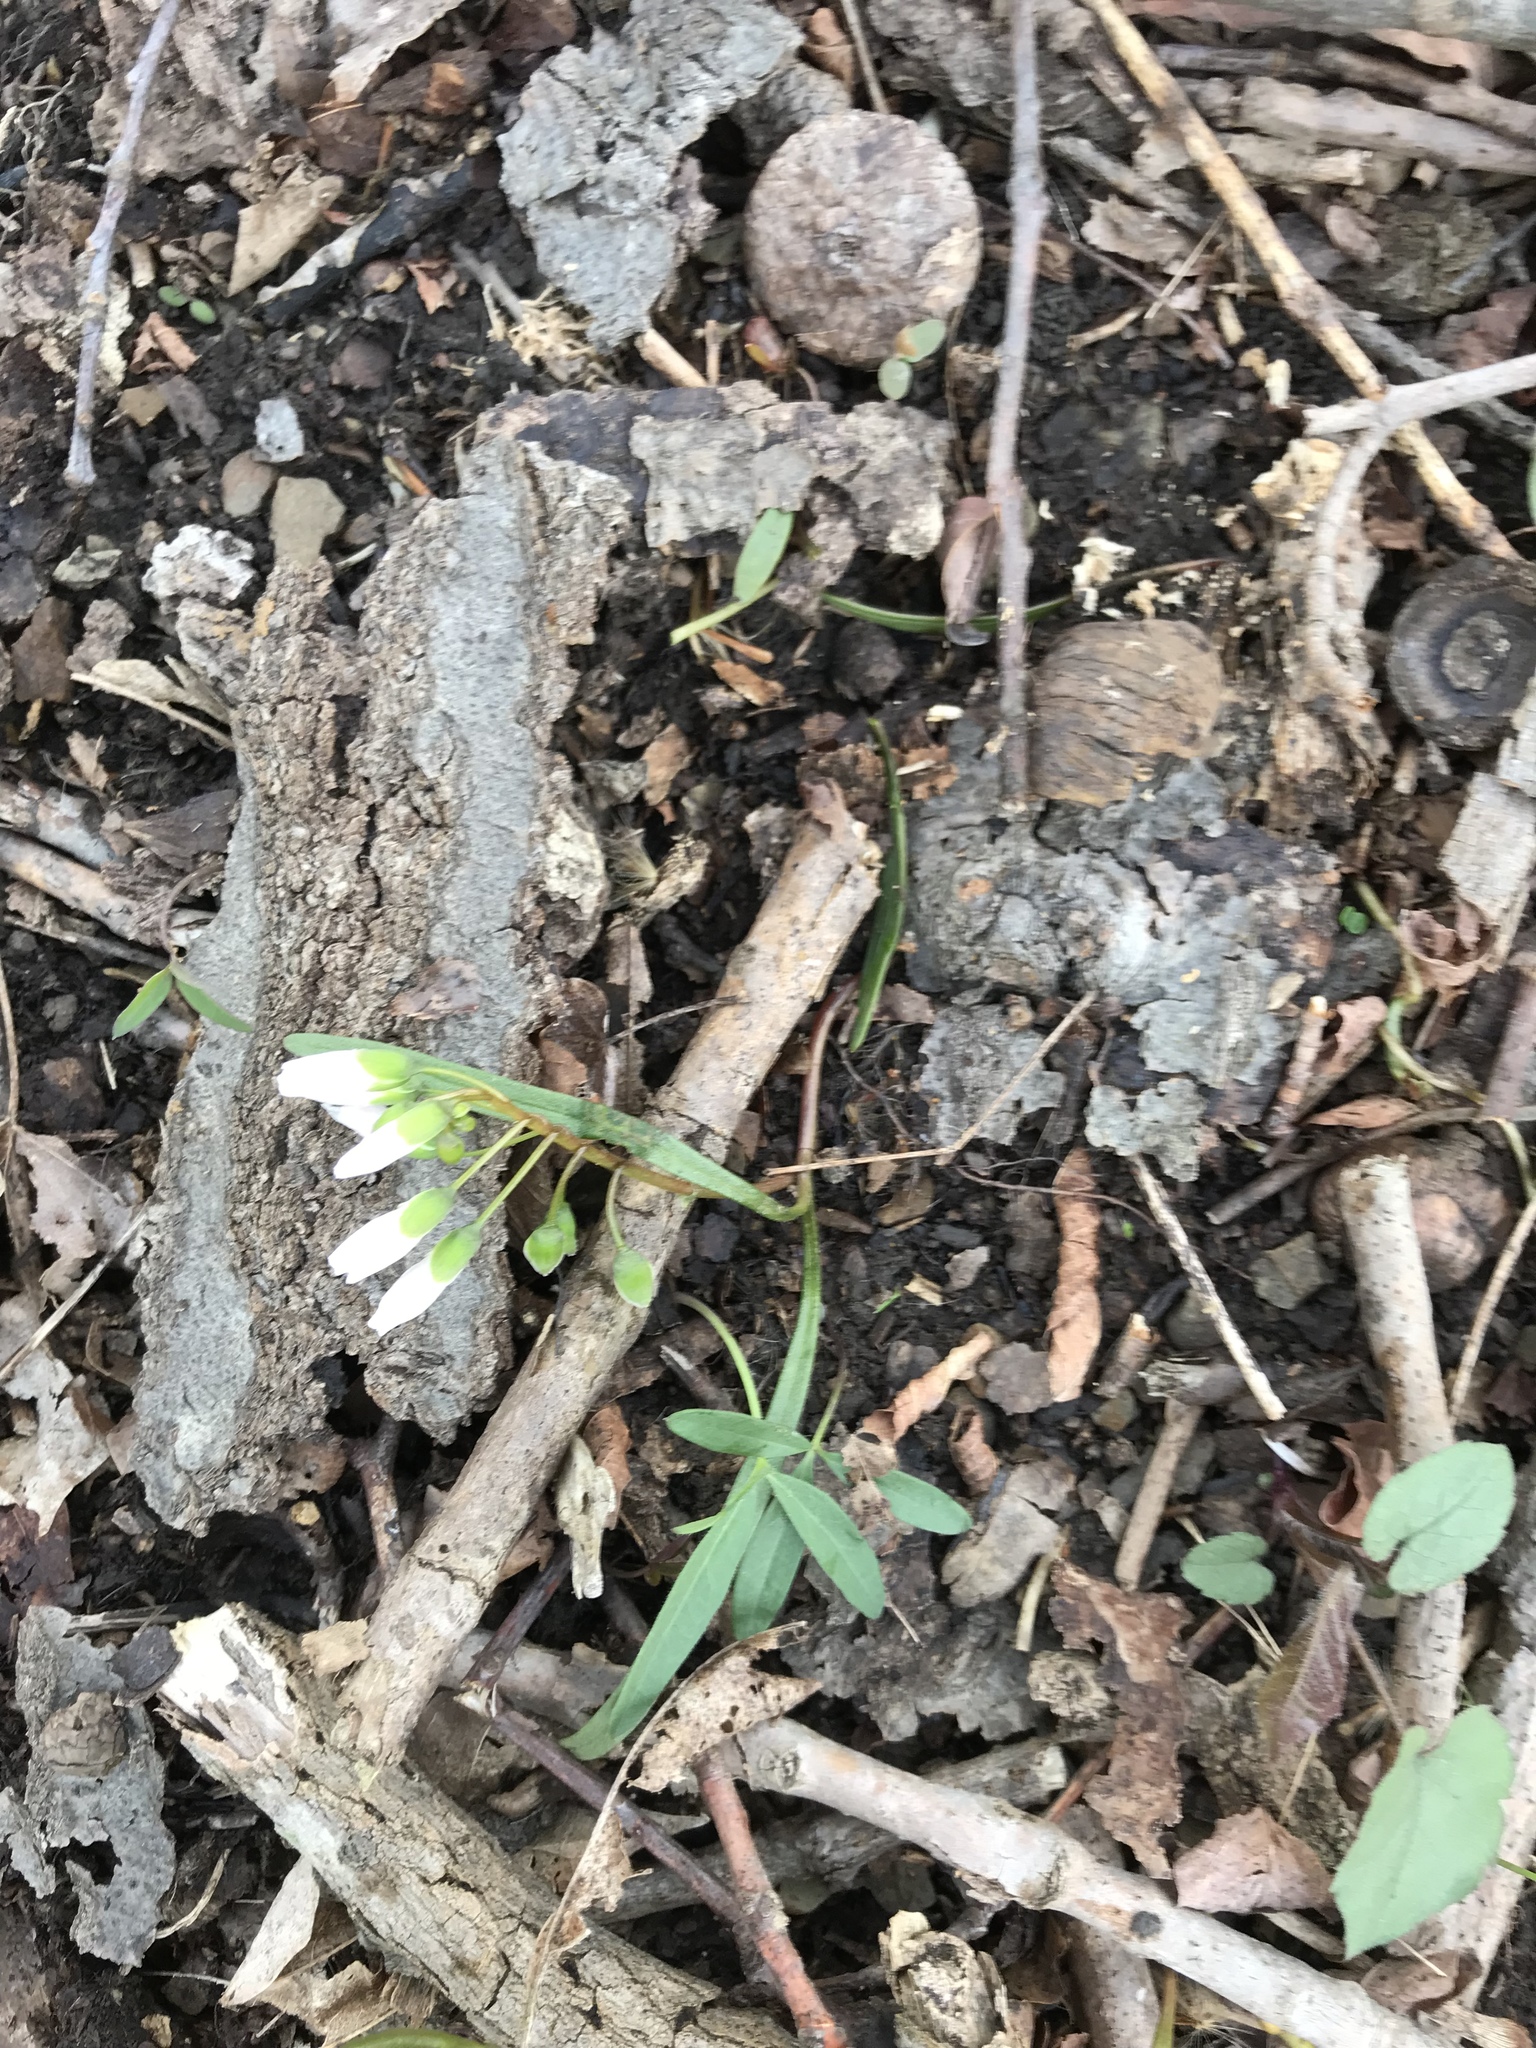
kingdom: Plantae
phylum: Tracheophyta
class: Magnoliopsida
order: Caryophyllales
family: Montiaceae
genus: Claytonia
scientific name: Claytonia virginica
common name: Virginia springbeauty
